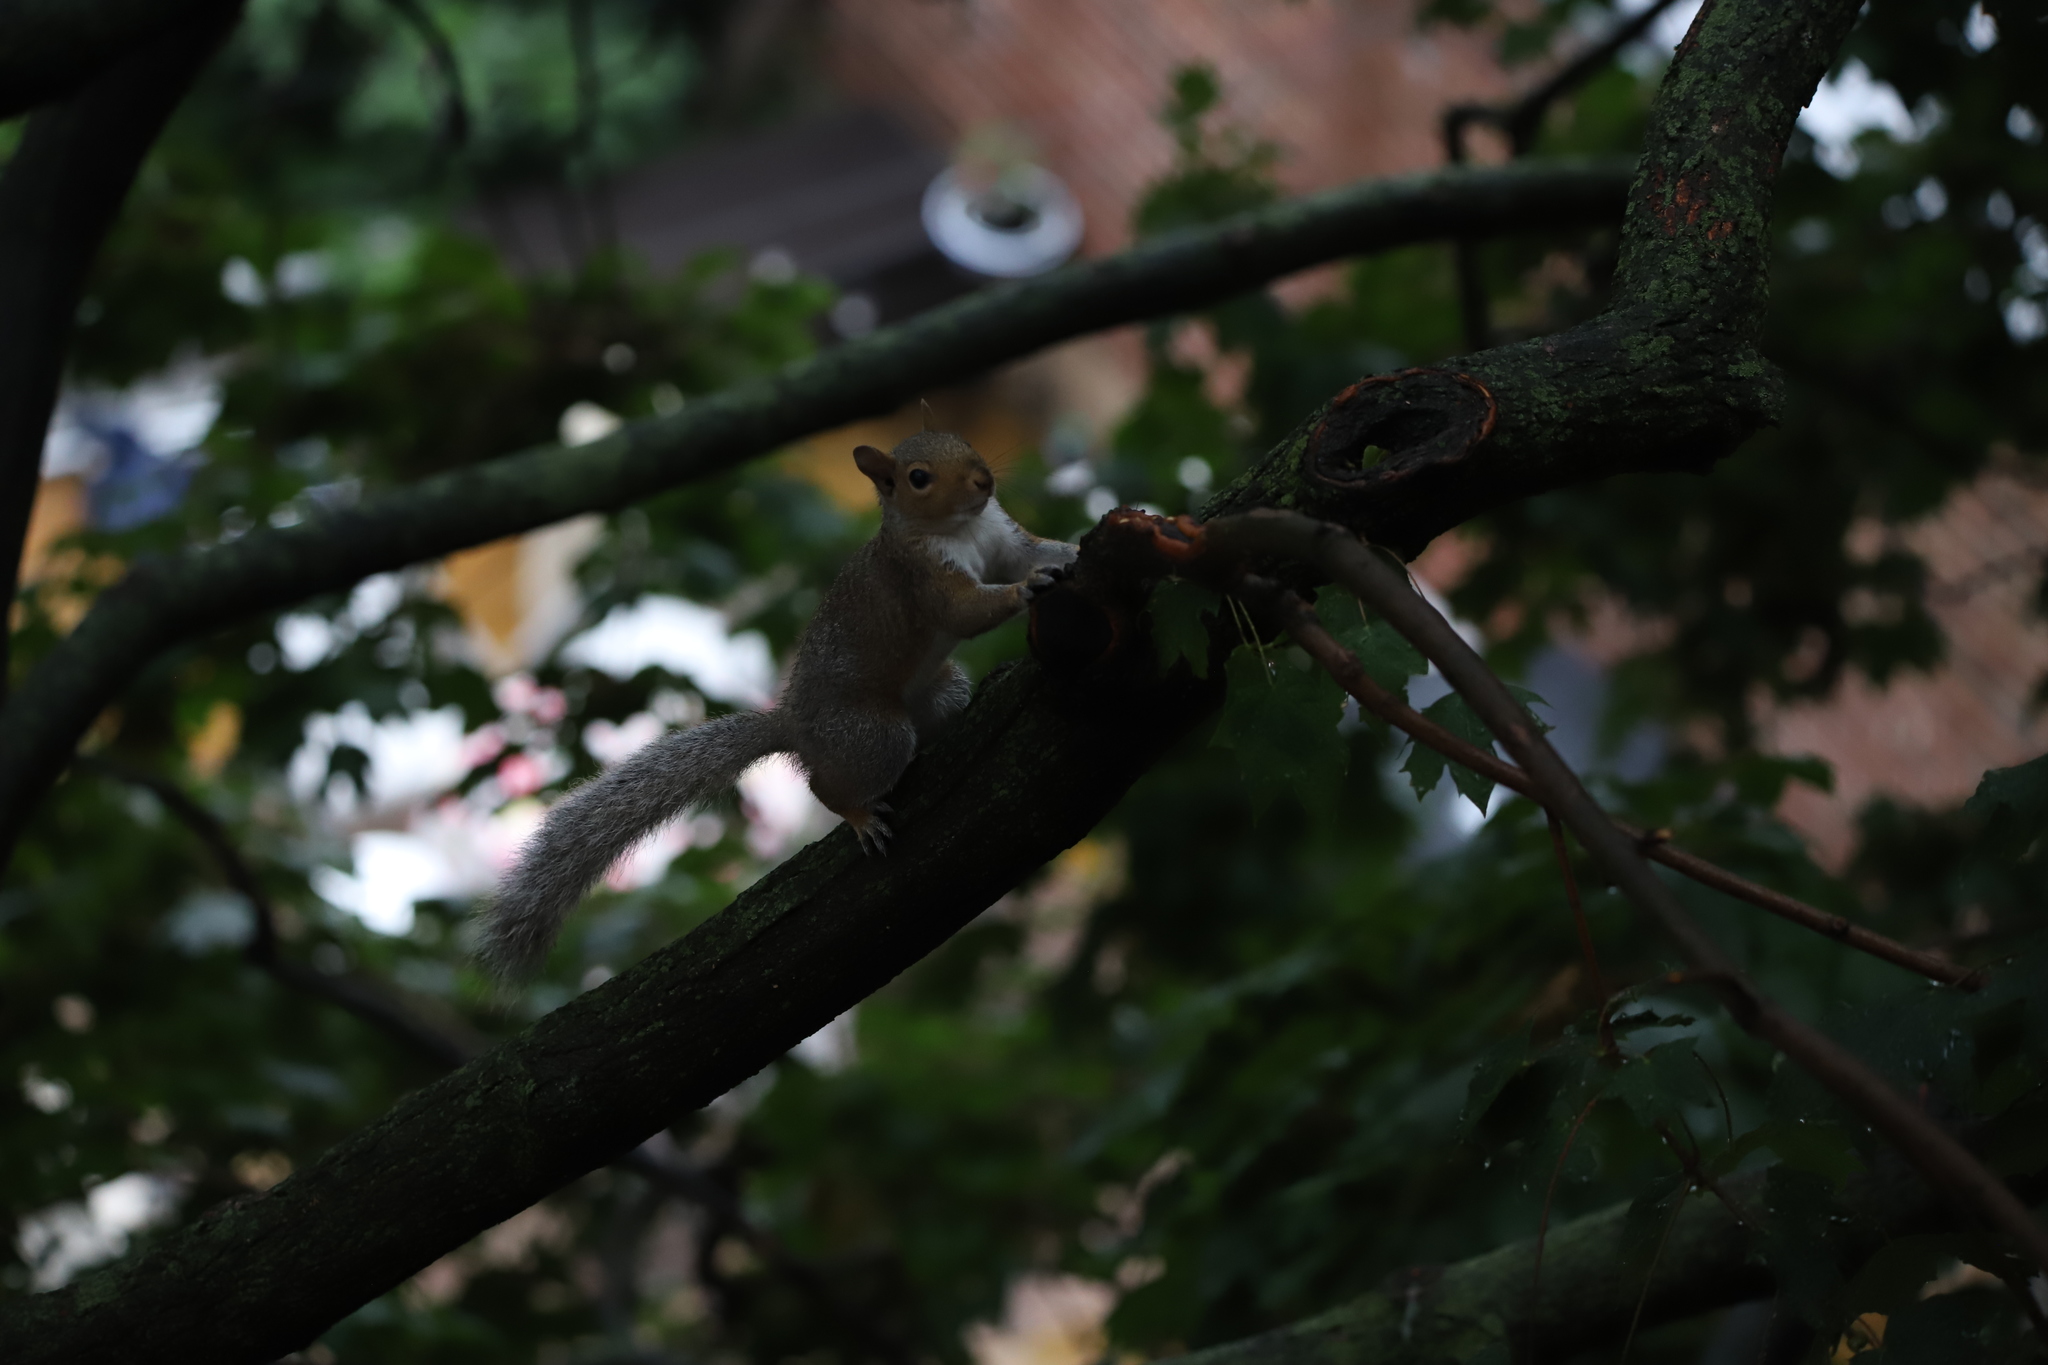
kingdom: Animalia
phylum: Chordata
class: Mammalia
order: Rodentia
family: Sciuridae
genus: Sciurus
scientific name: Sciurus carolinensis
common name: Eastern gray squirrel
